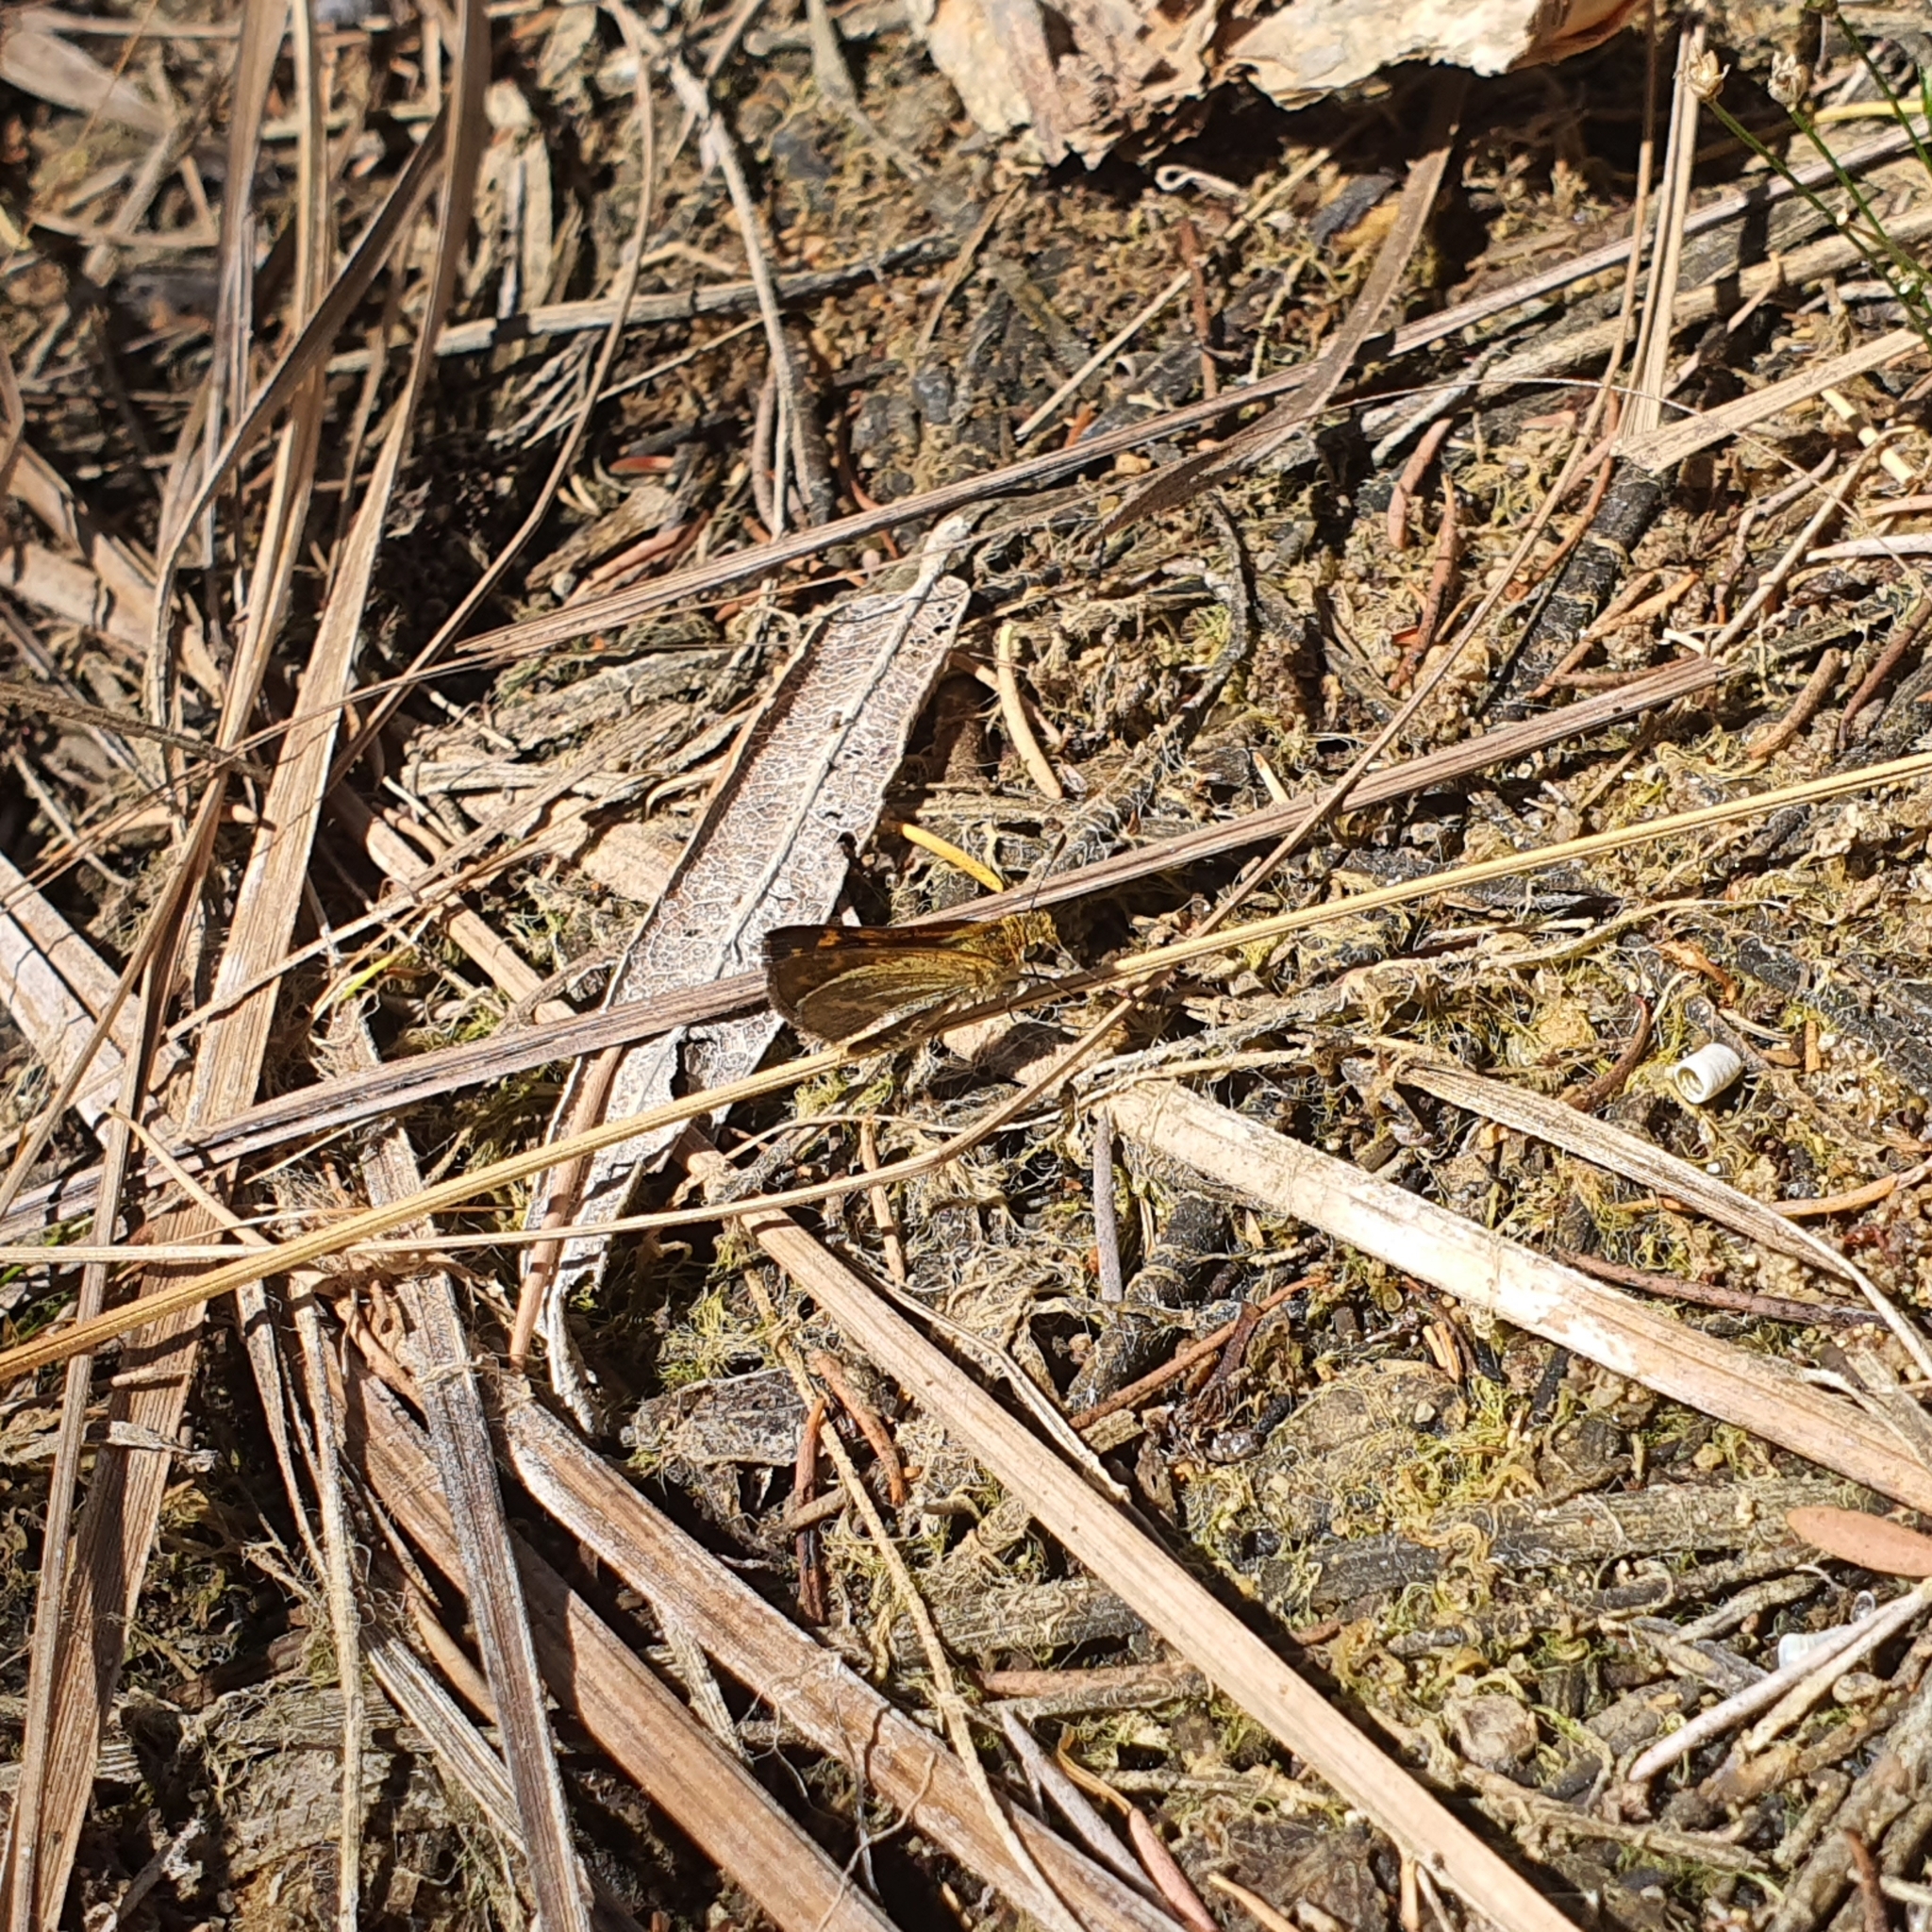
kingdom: Animalia
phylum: Arthropoda
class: Insecta
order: Lepidoptera
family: Hesperiidae
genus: Taractrocera
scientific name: Taractrocera papyria
